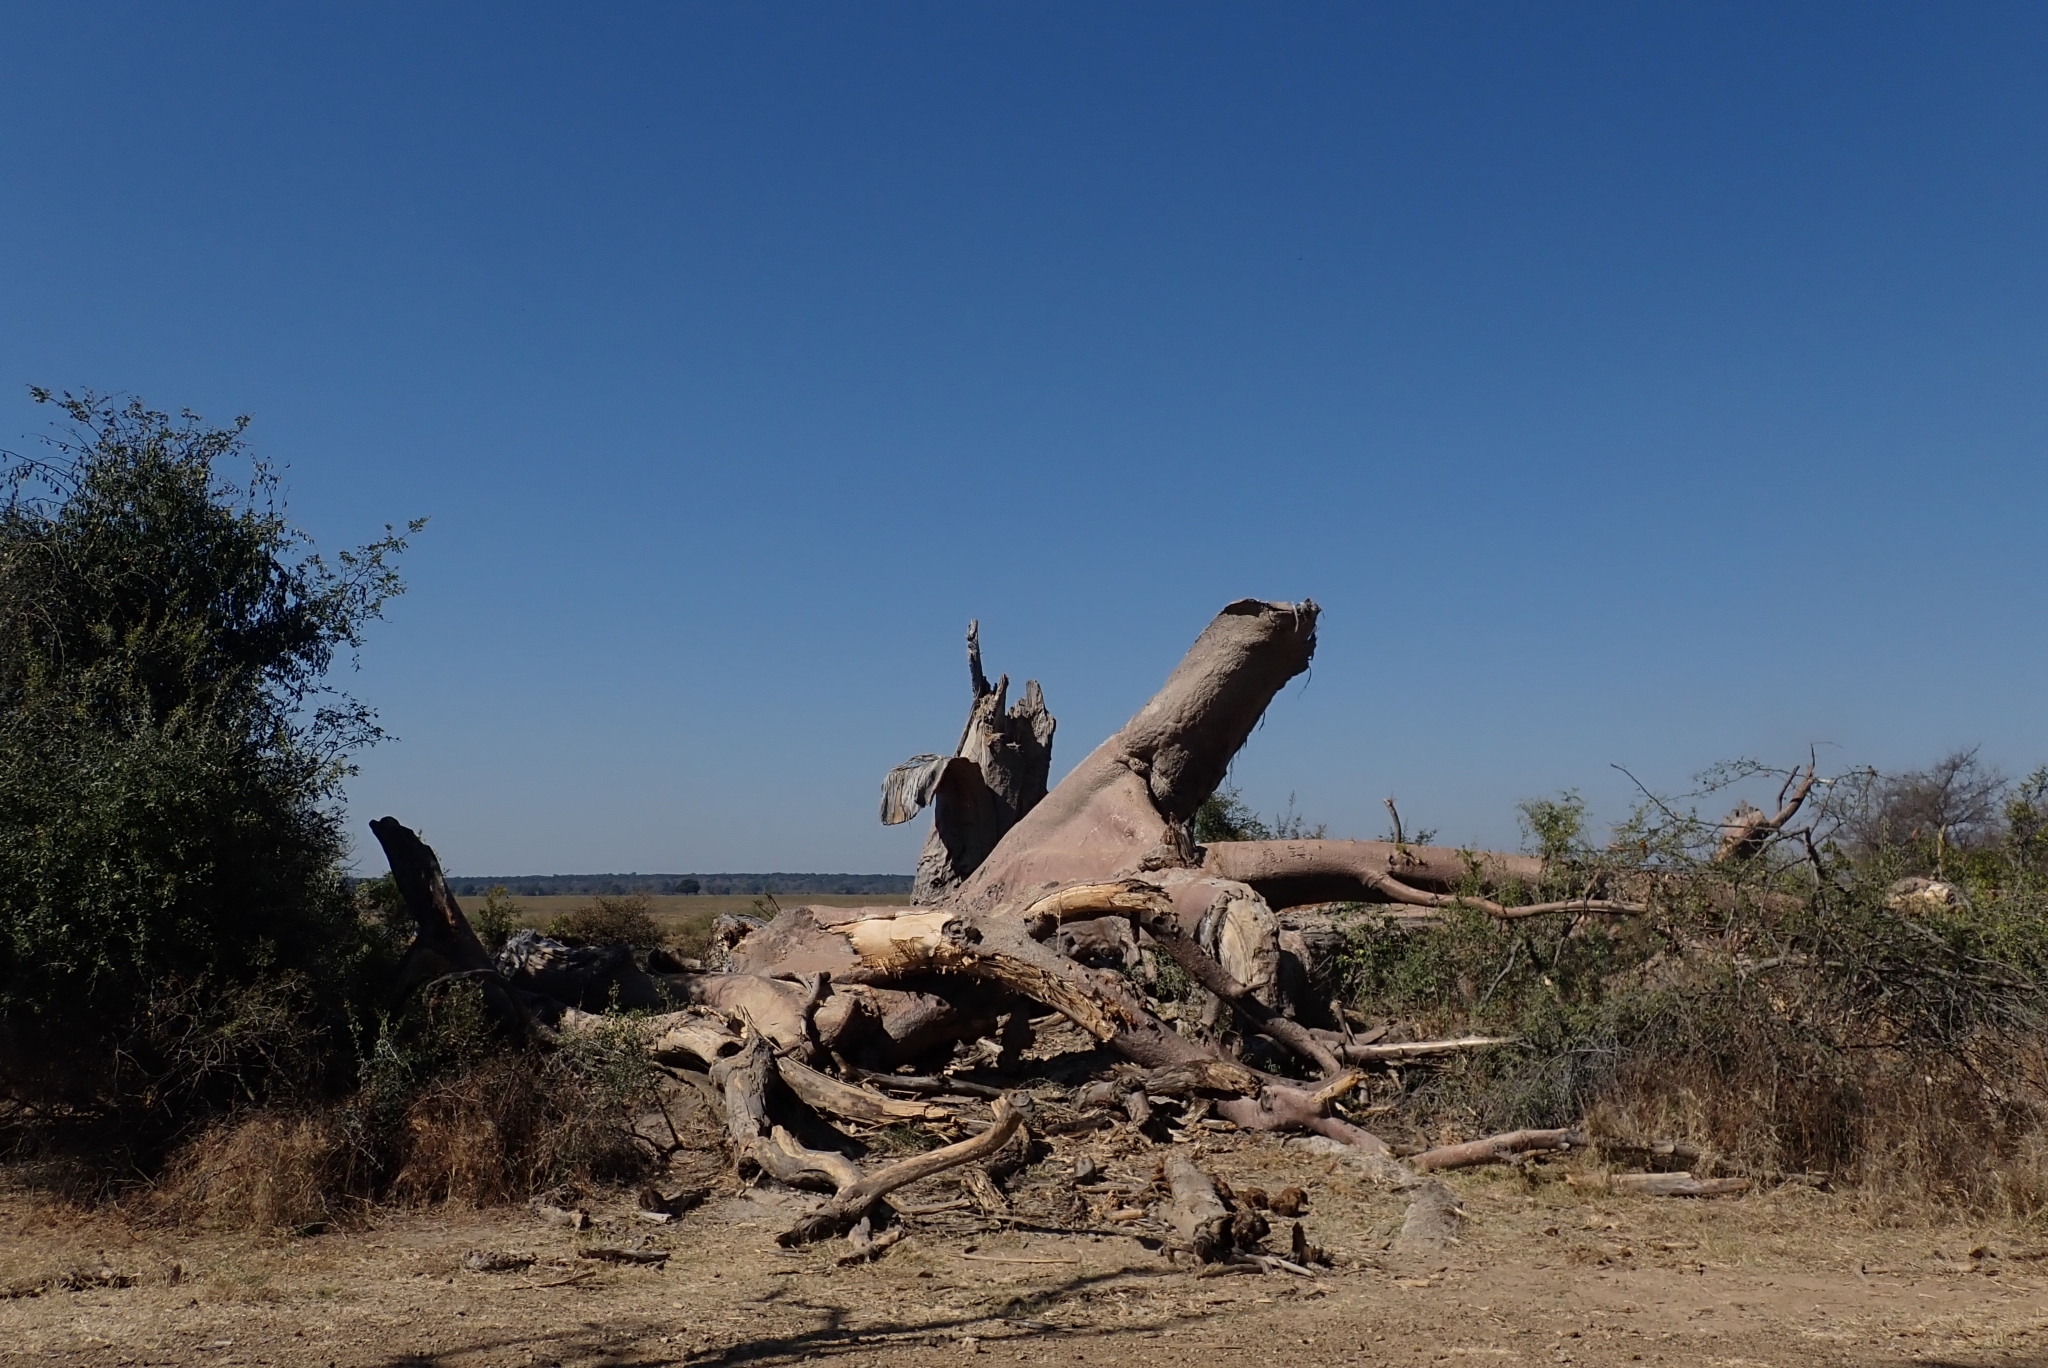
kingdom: Plantae
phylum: Tracheophyta
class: Magnoliopsida
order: Malvales
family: Malvaceae
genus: Adansonia
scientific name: Adansonia digitata
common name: Dead-rat-tree
